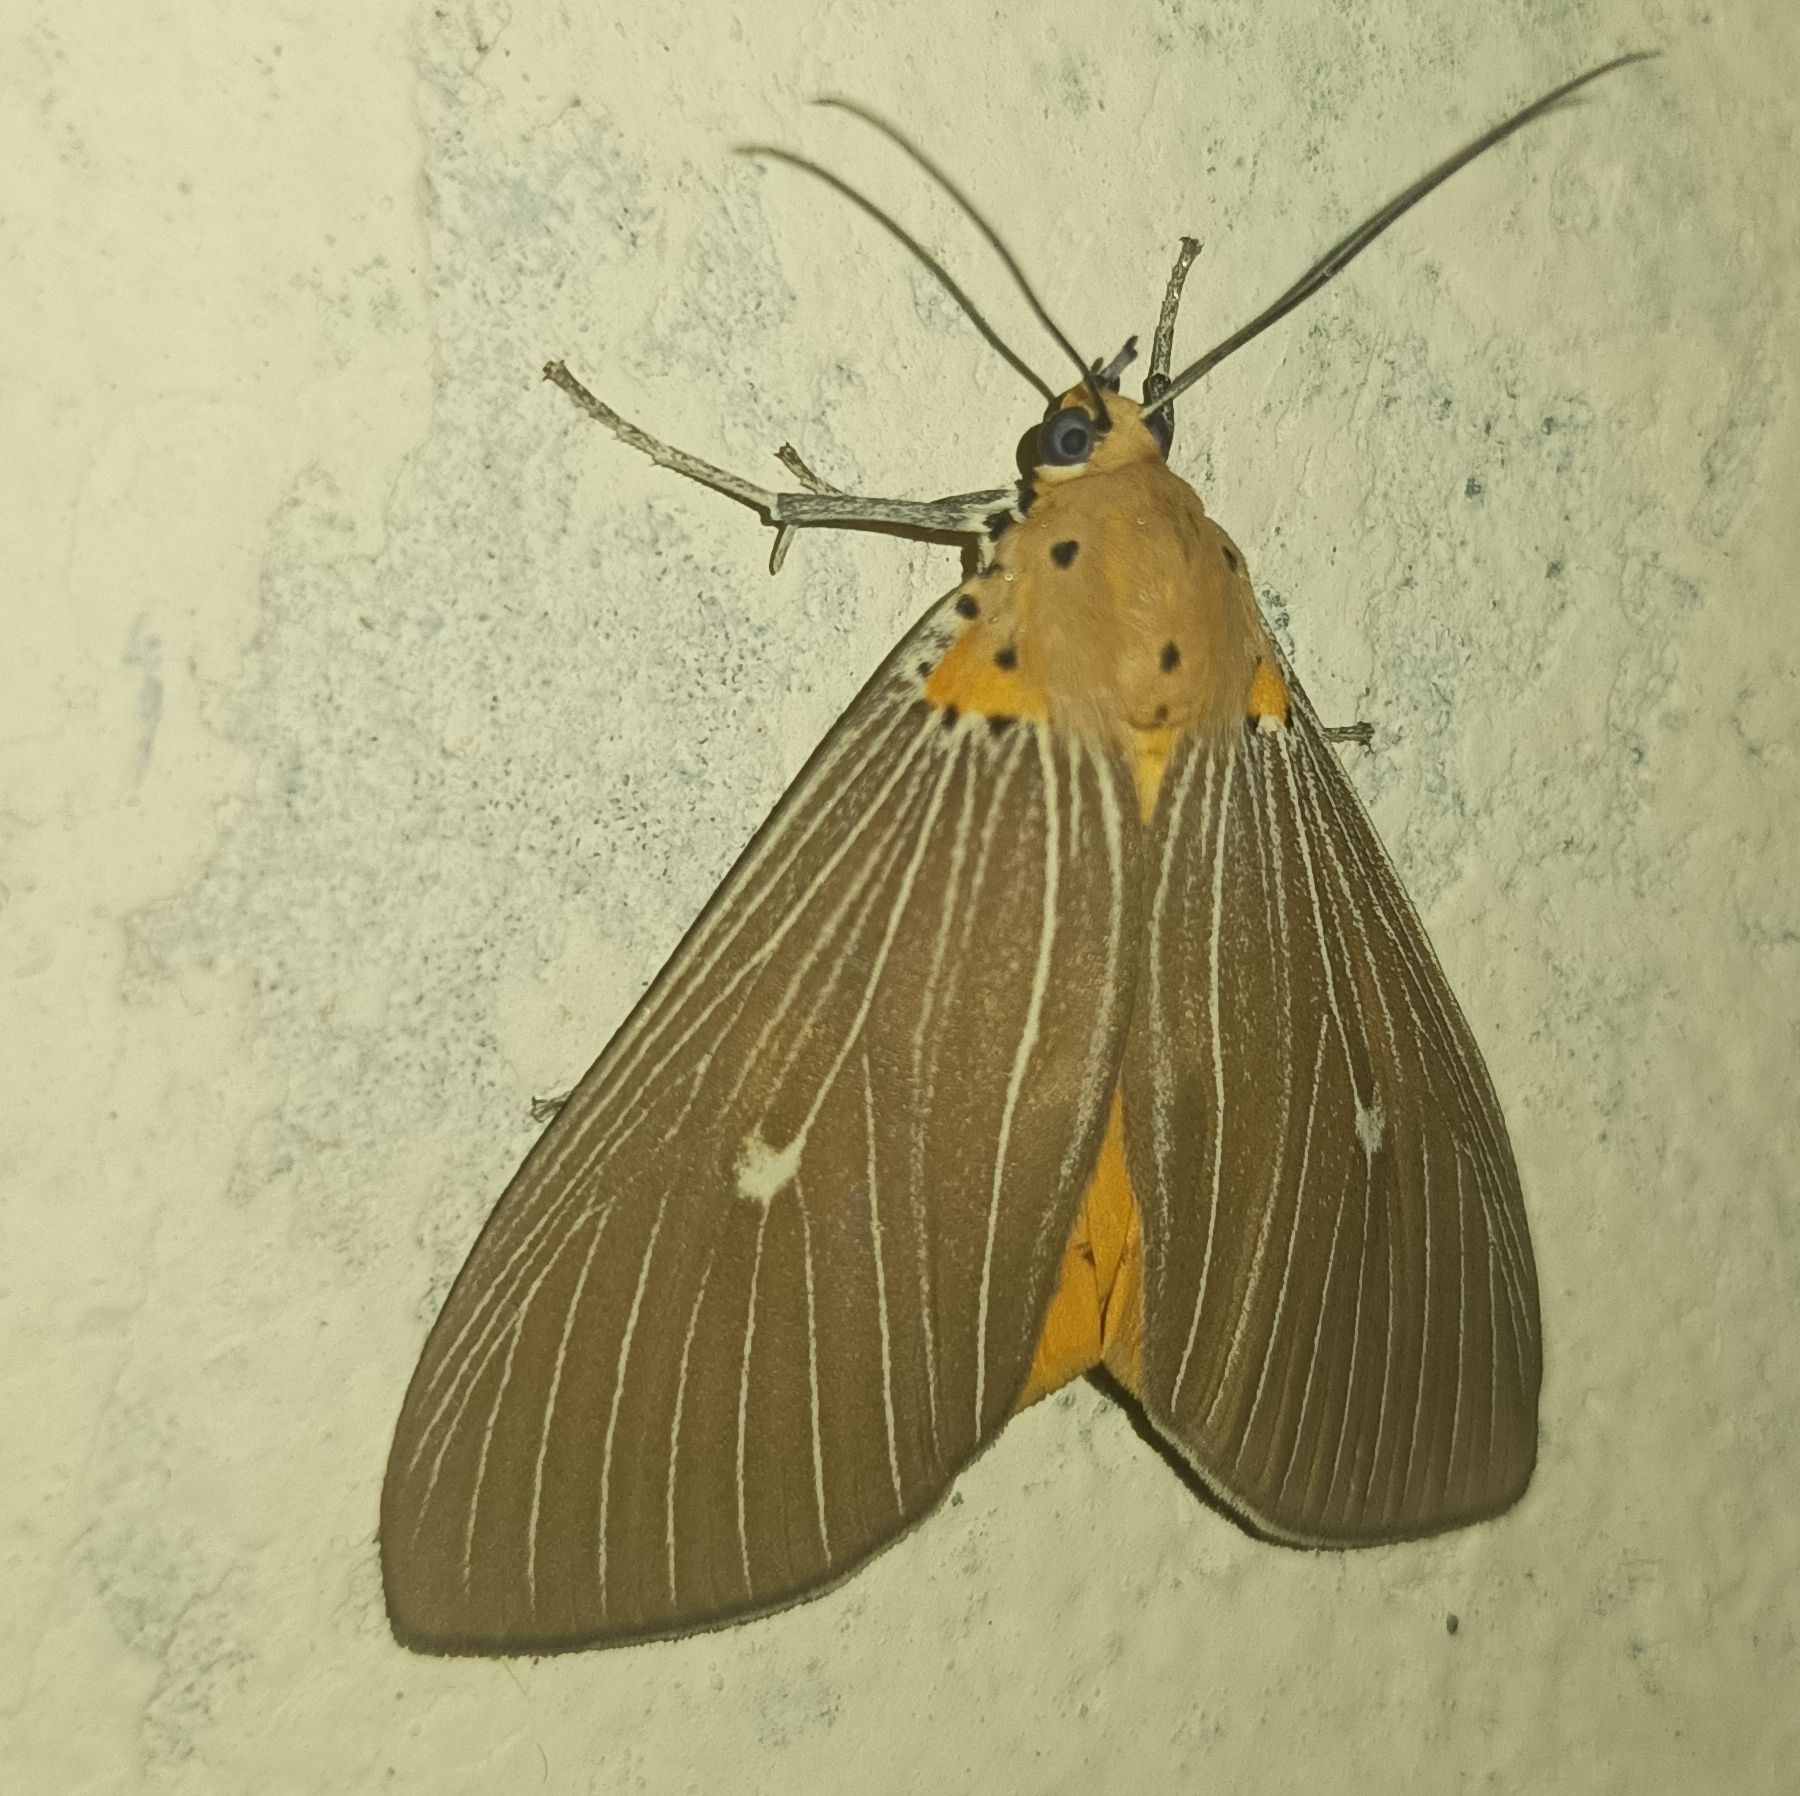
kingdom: Animalia
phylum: Arthropoda
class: Insecta
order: Lepidoptera
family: Erebidae
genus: Asota
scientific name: Asota caricae
